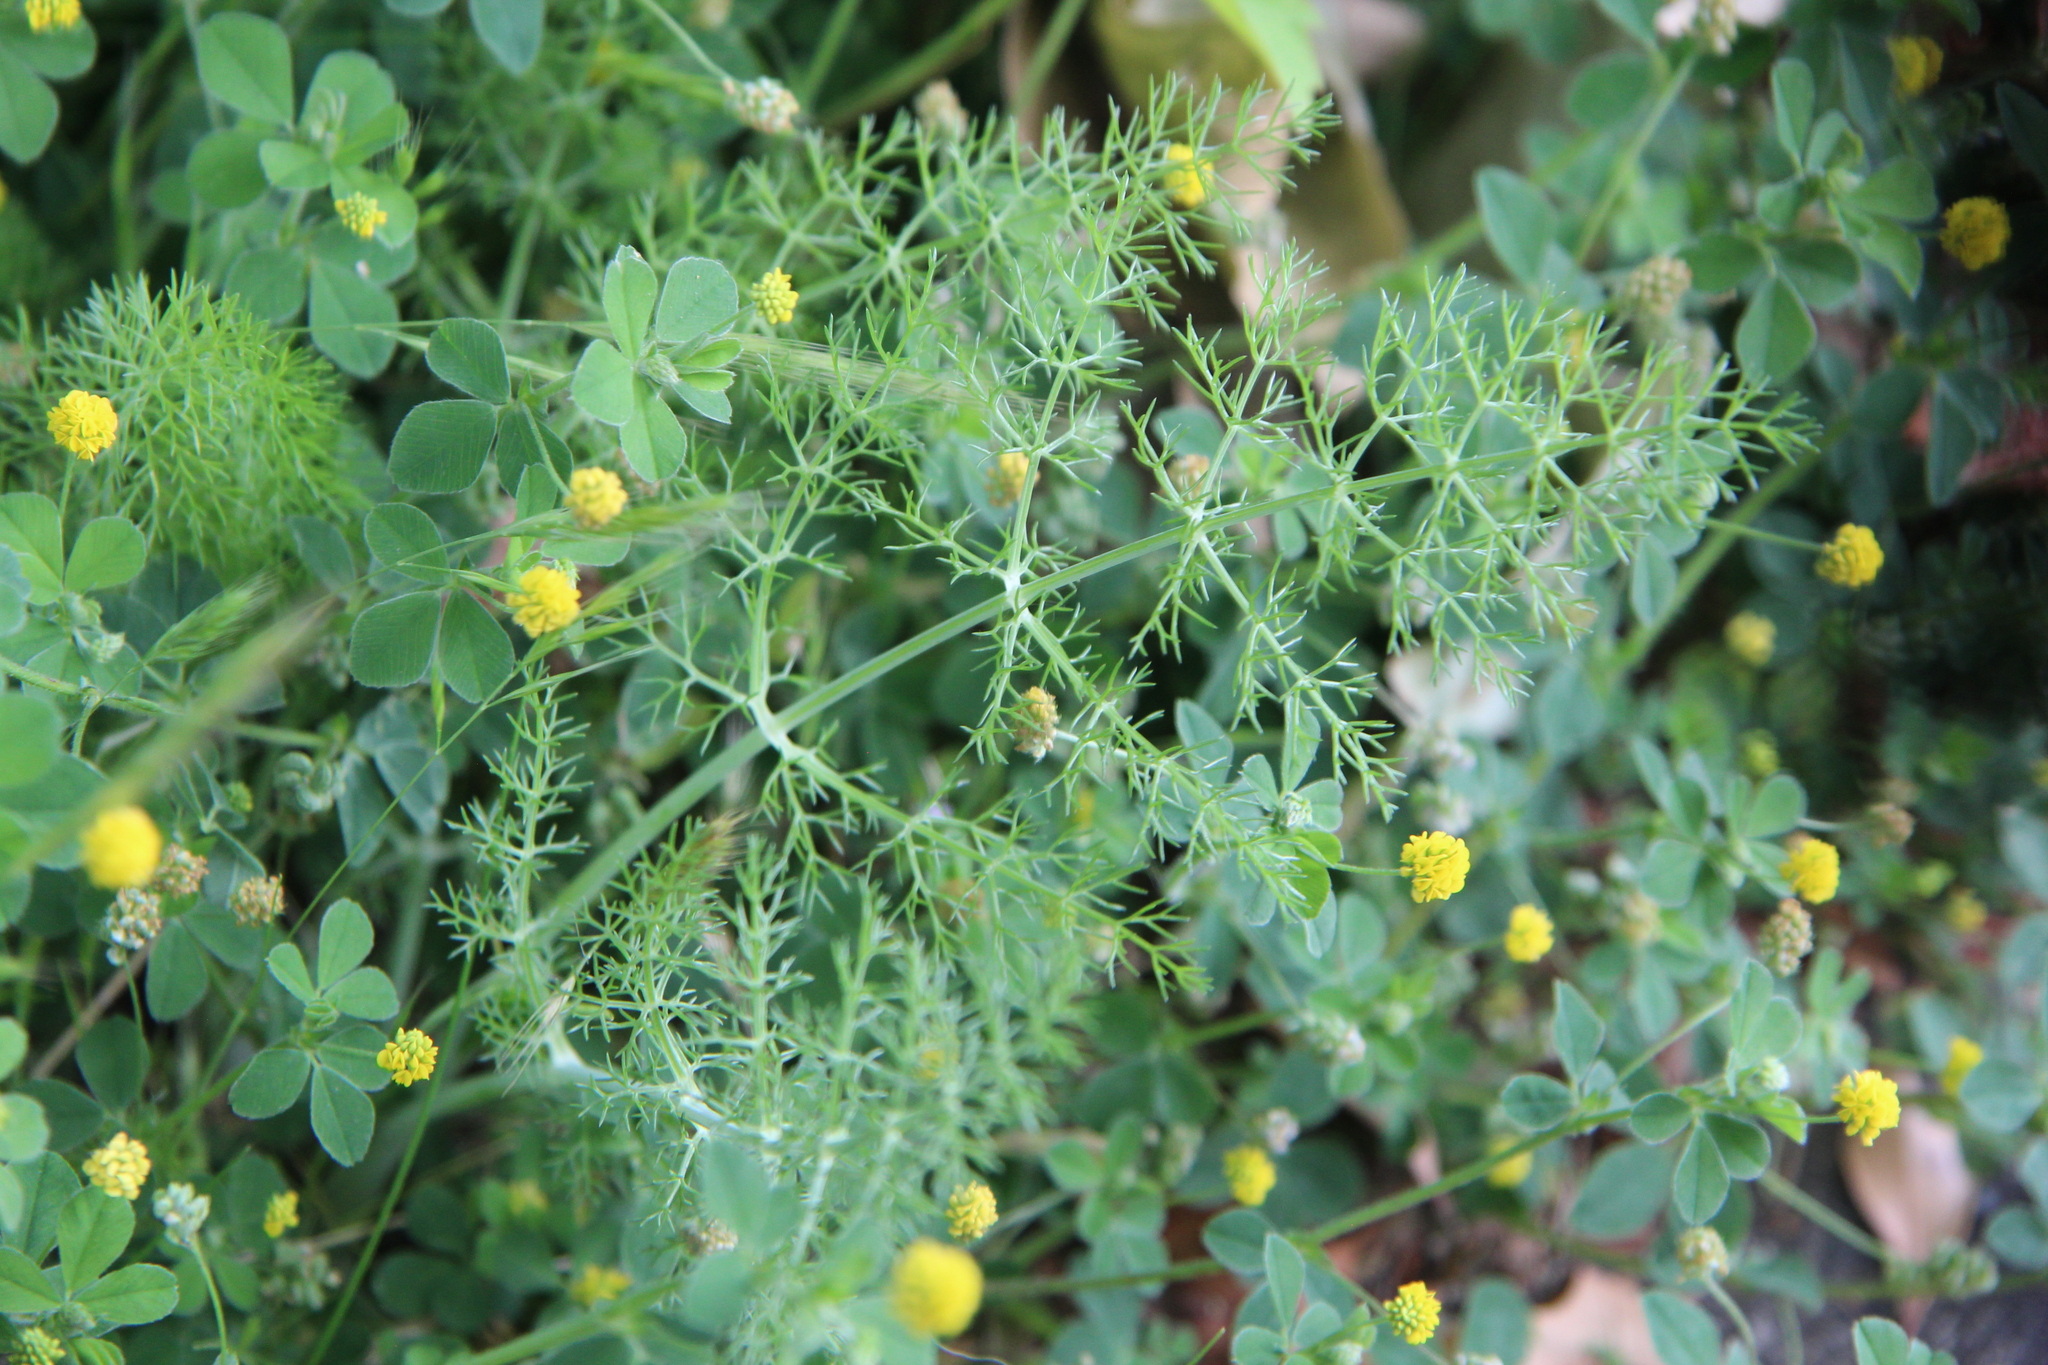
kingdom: Plantae
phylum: Tracheophyta
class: Magnoliopsida
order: Apiales
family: Apiaceae
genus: Foeniculum
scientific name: Foeniculum vulgare
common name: Fennel
